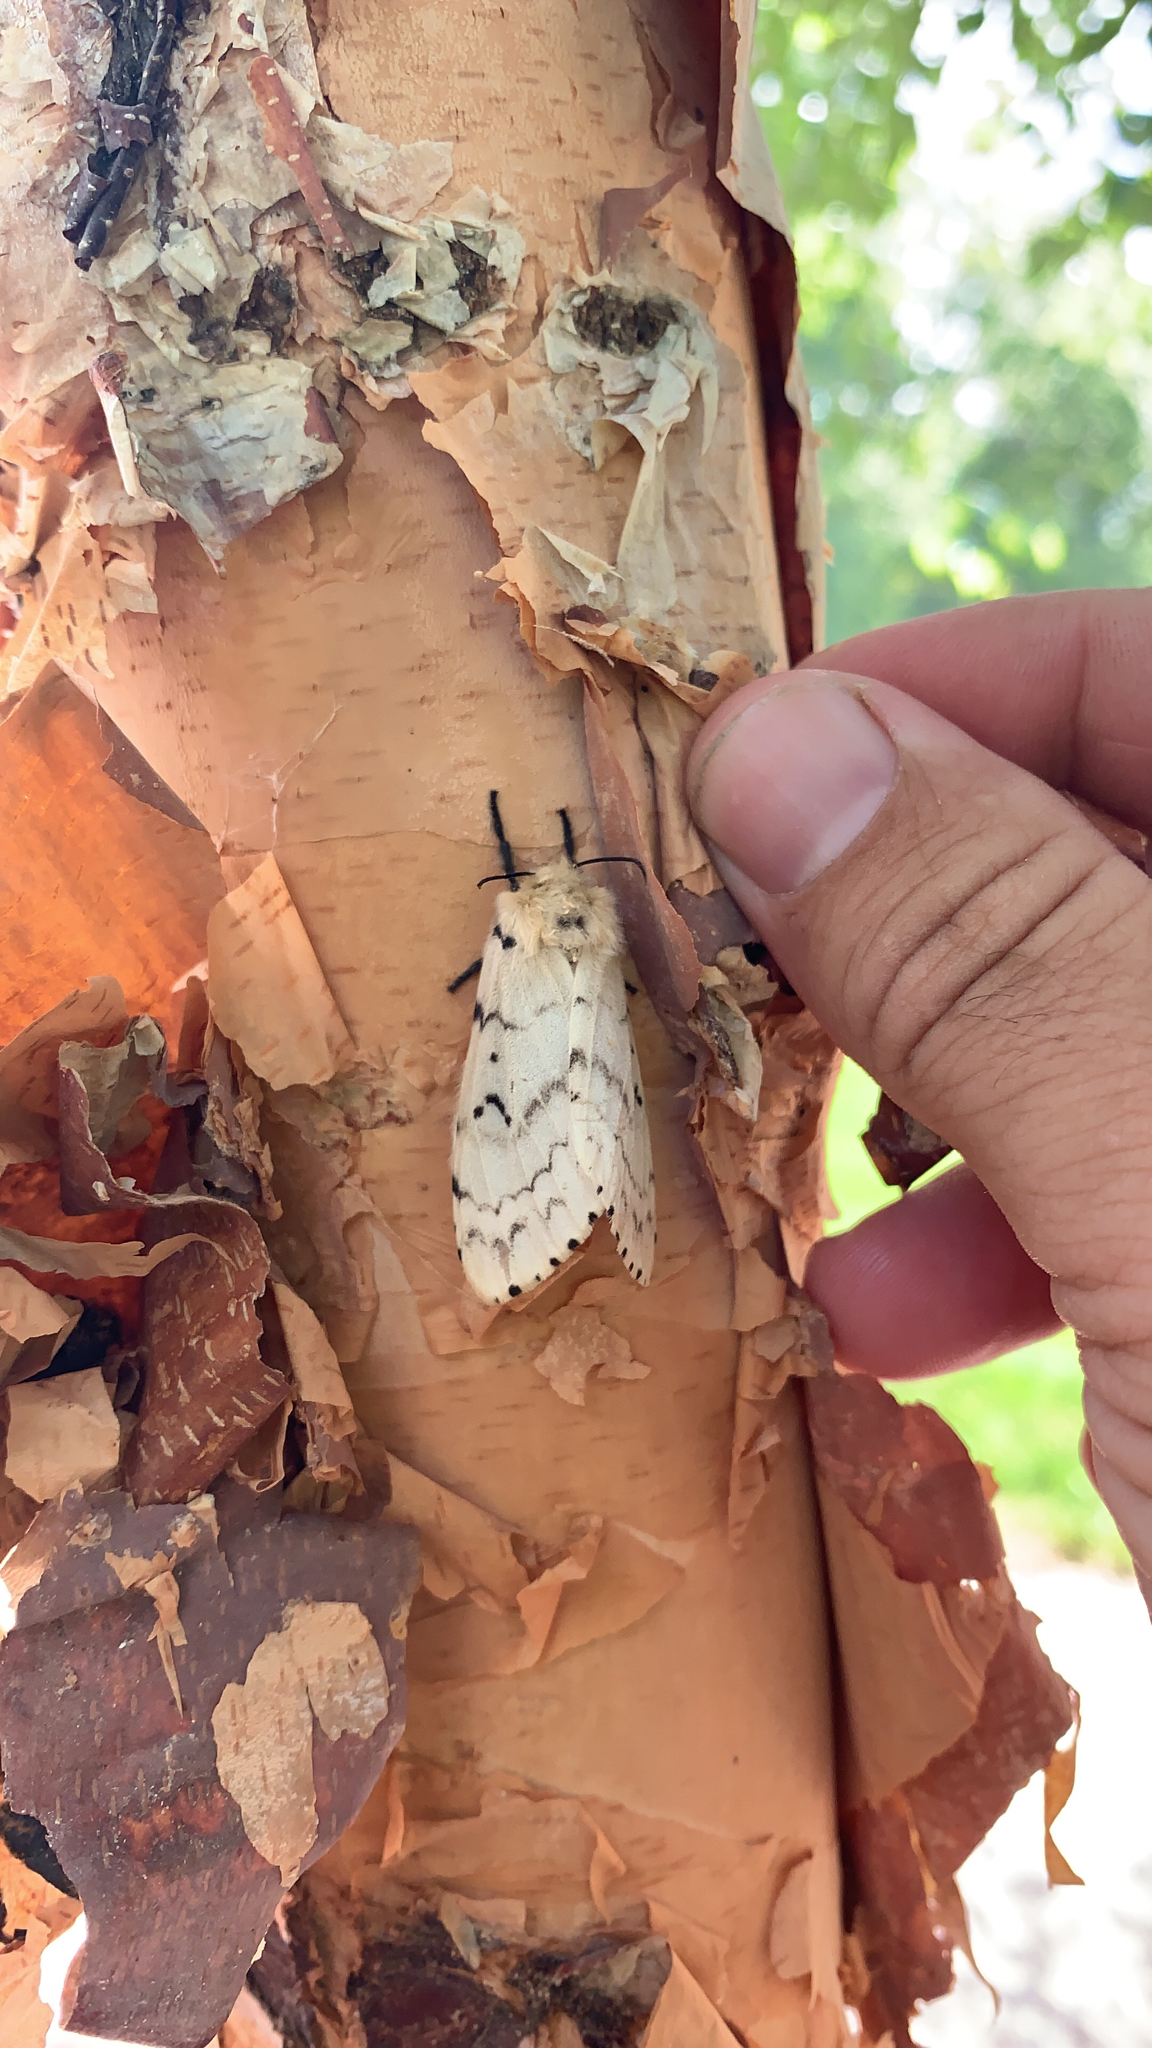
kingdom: Animalia
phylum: Arthropoda
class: Insecta
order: Lepidoptera
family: Erebidae
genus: Lymantria
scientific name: Lymantria dispar
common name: Gypsy moth
